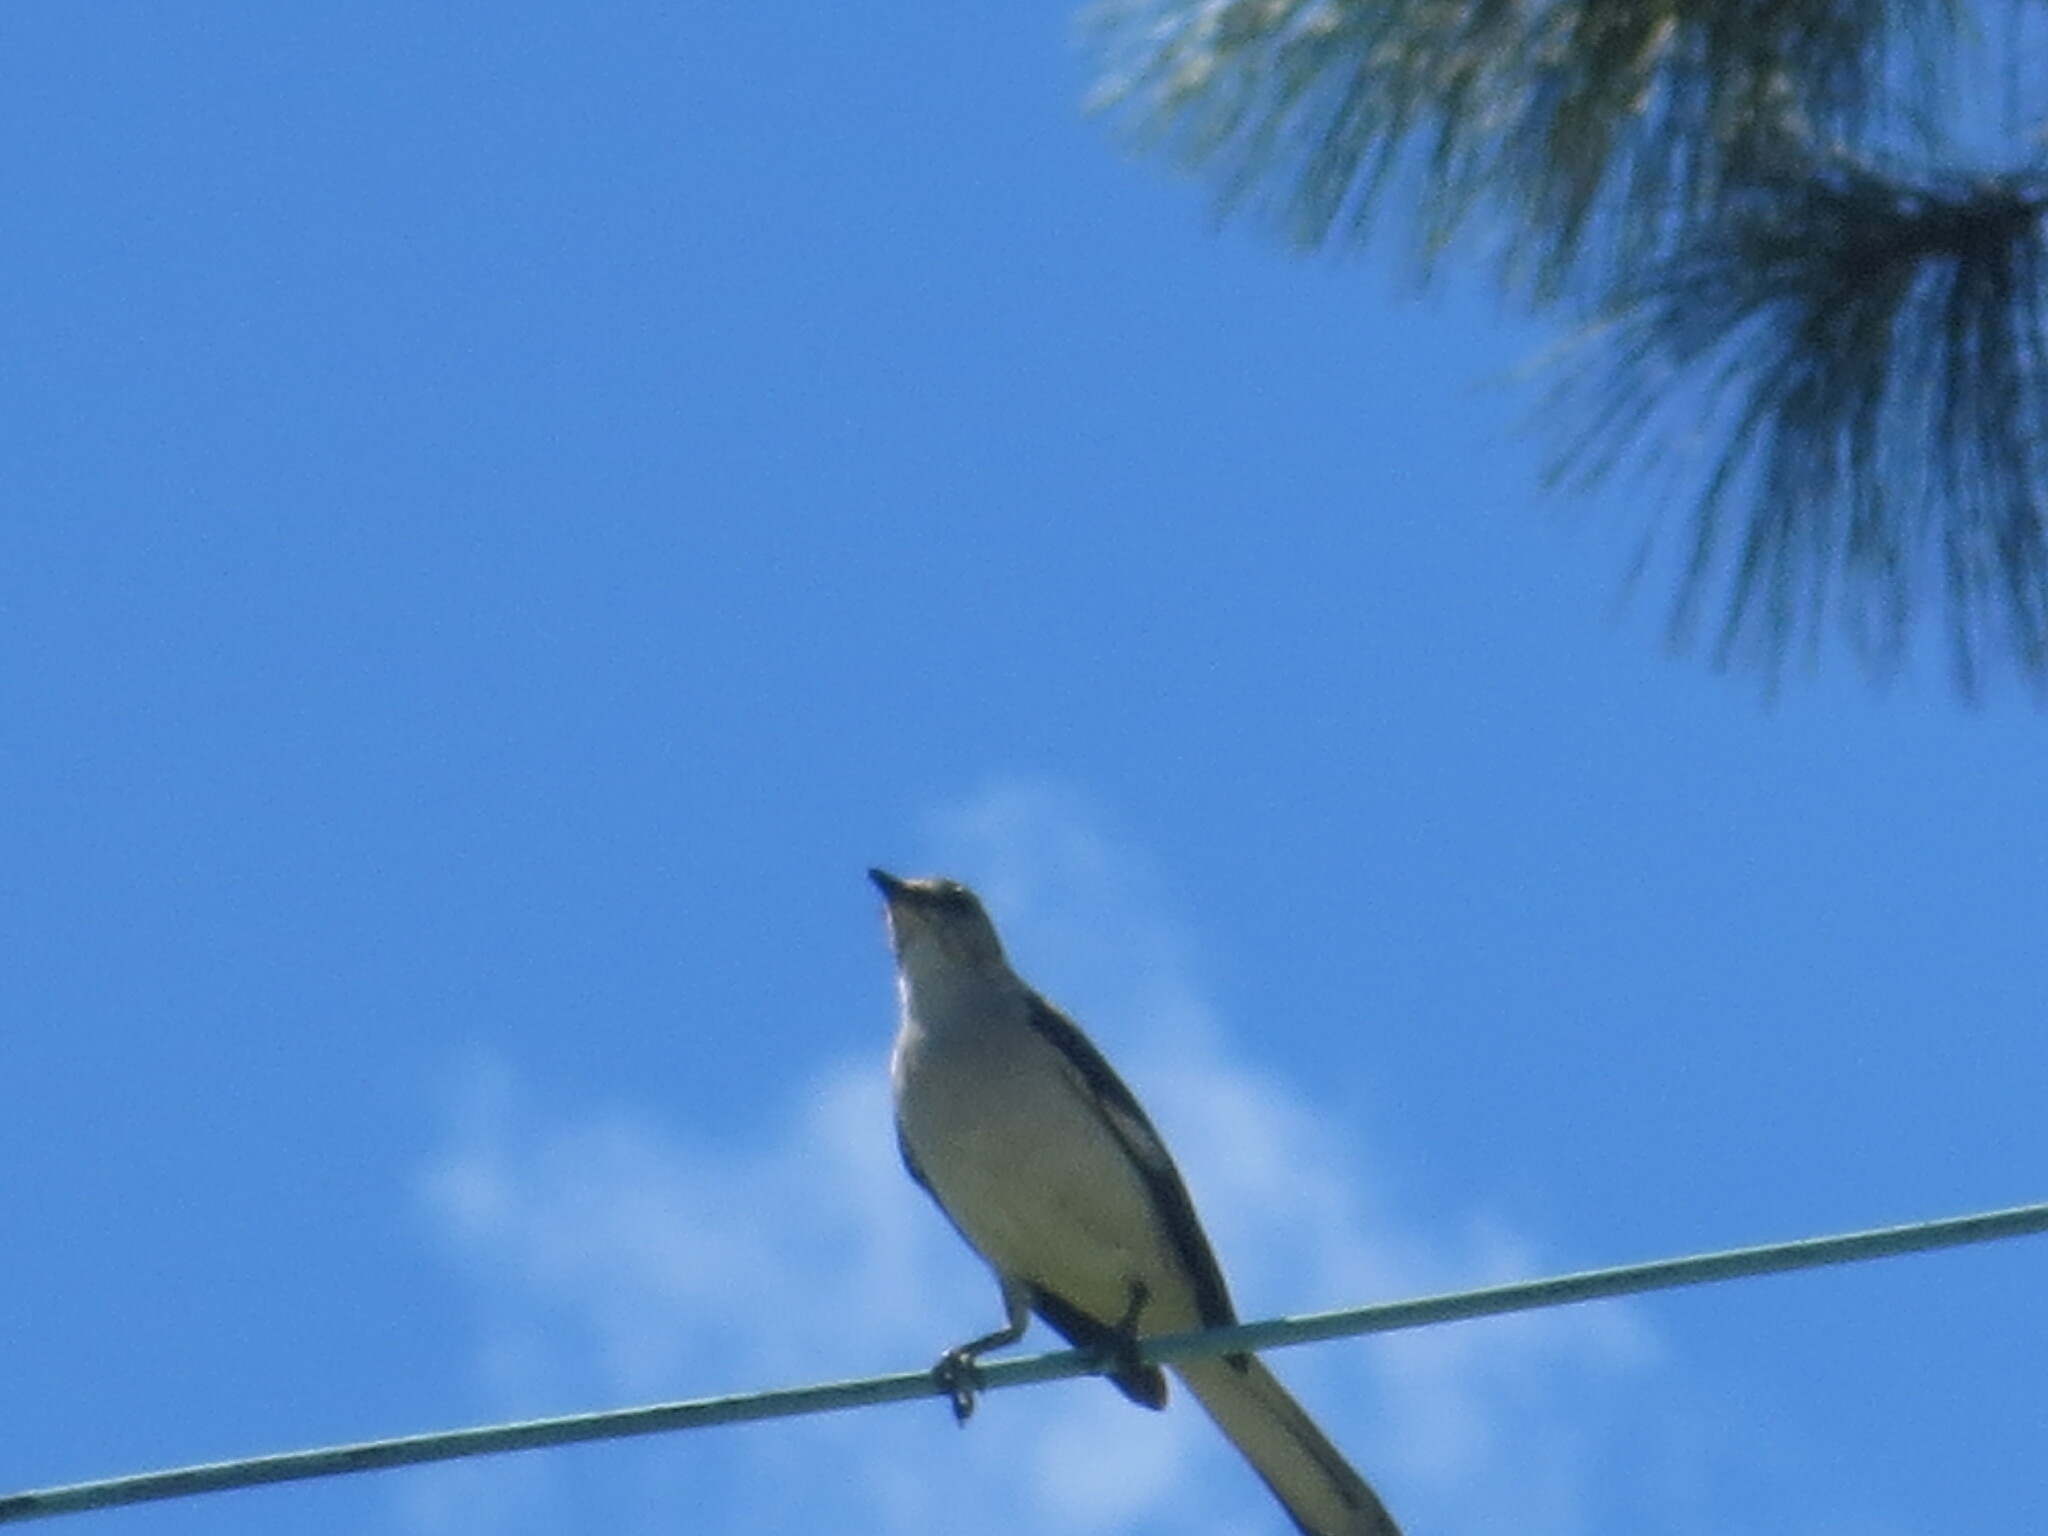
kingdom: Animalia
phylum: Chordata
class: Aves
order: Passeriformes
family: Mimidae
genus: Mimus
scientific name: Mimus polyglottos
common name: Northern mockingbird
